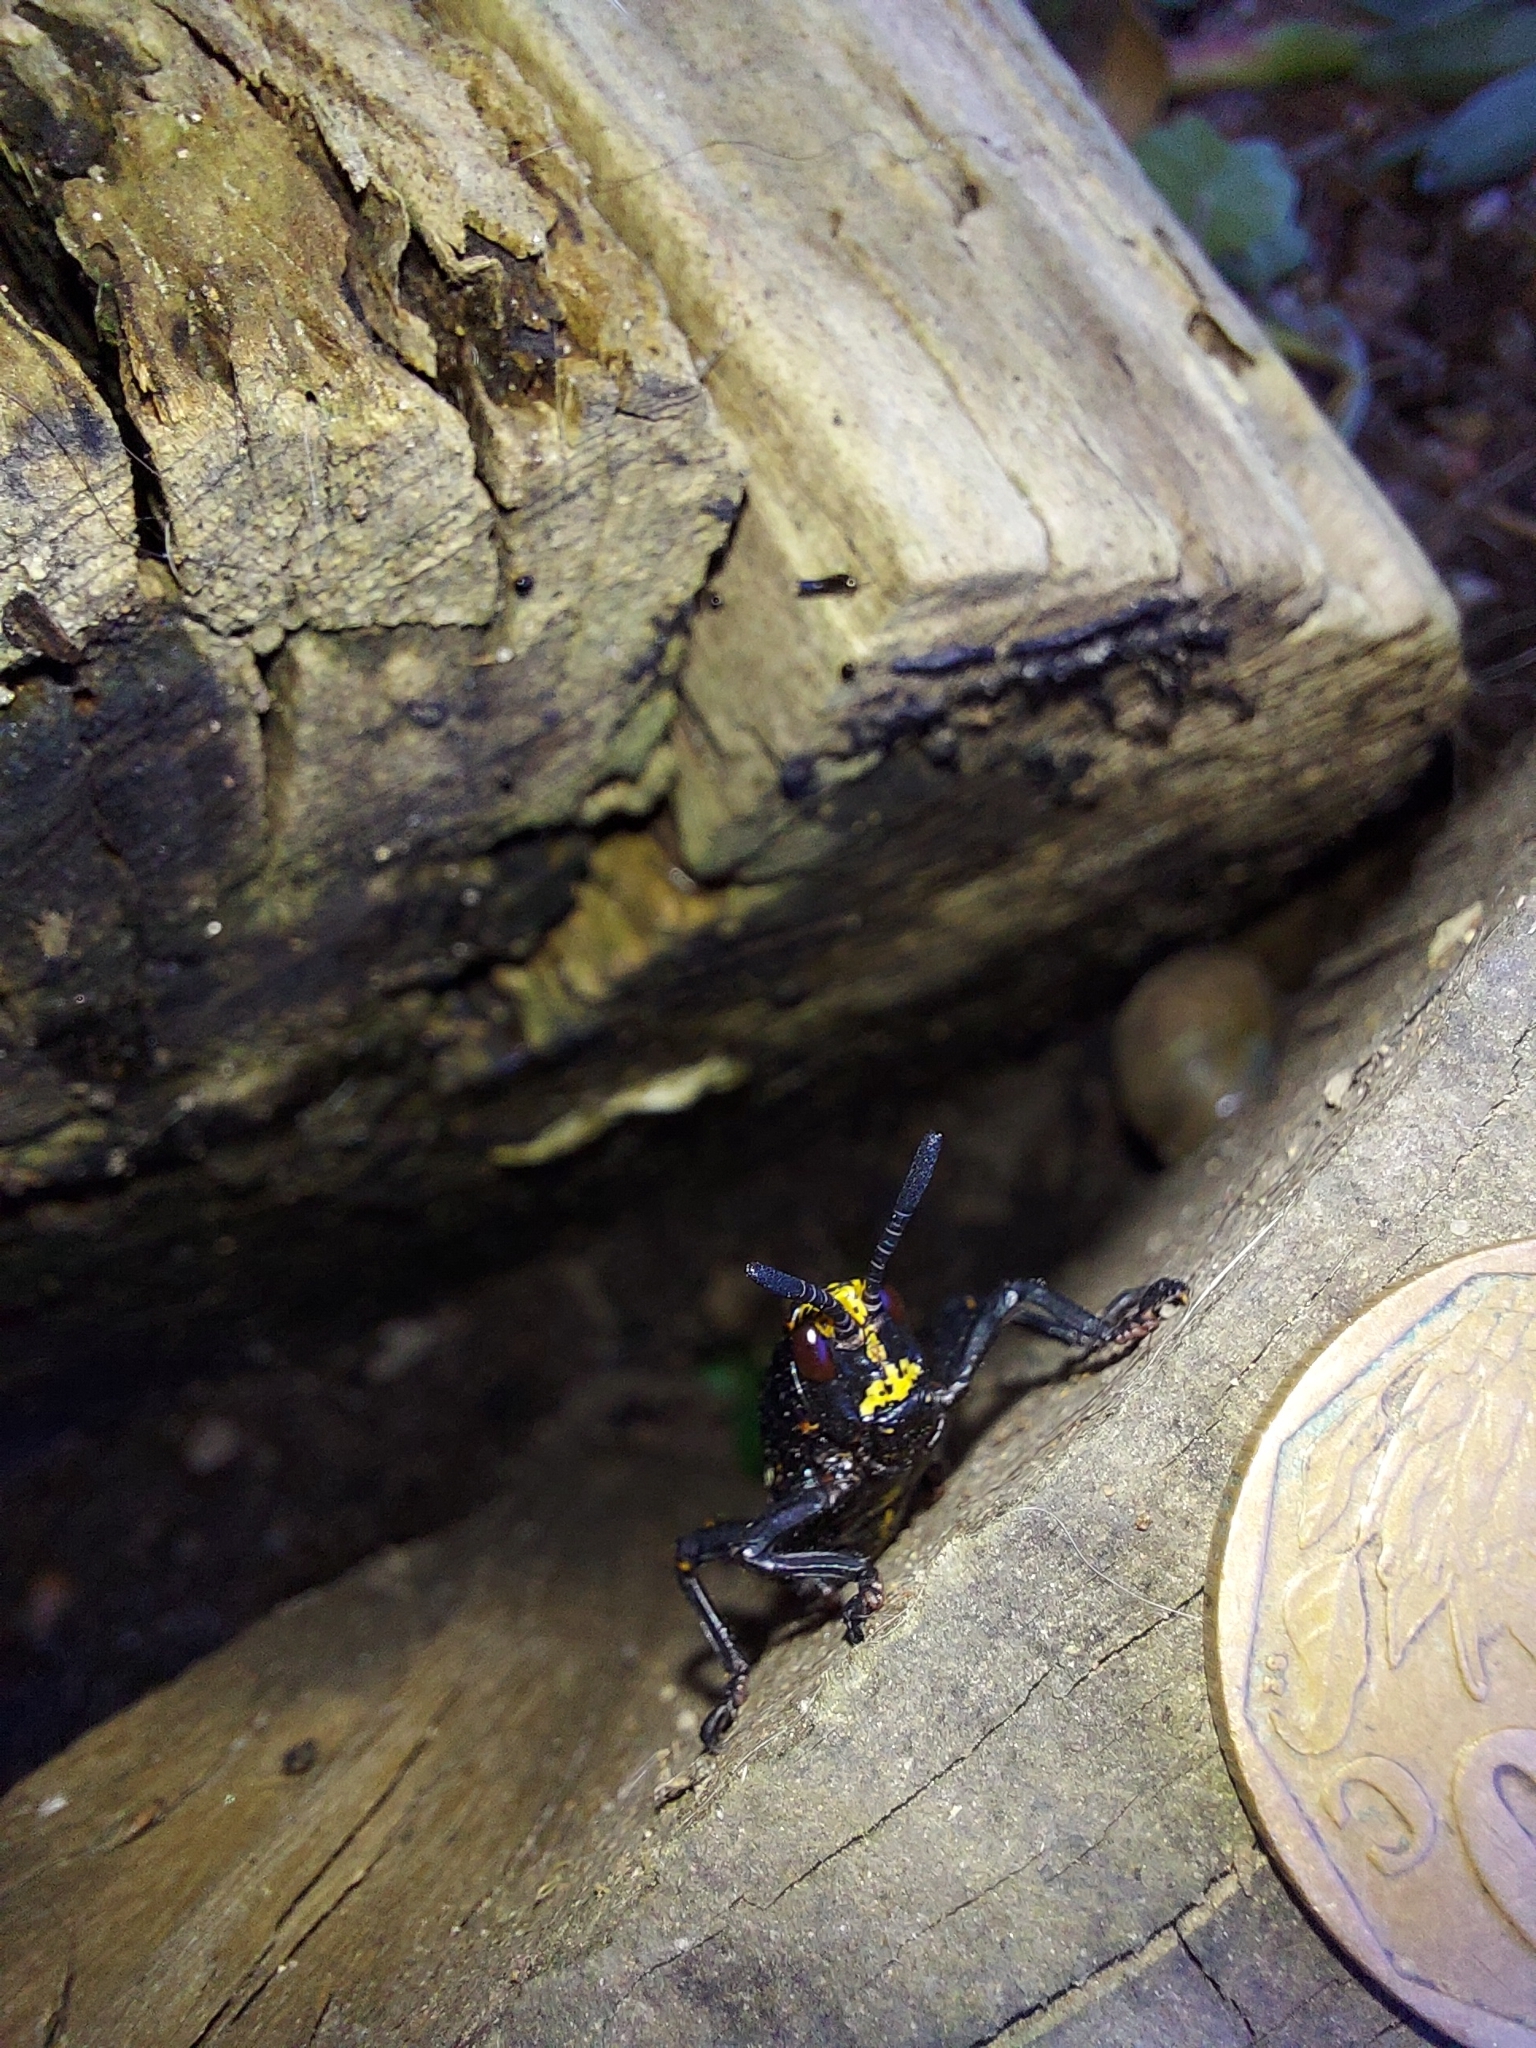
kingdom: Animalia
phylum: Arthropoda
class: Insecta
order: Orthoptera
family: Pyrgomorphidae
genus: Dictyophorus
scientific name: Dictyophorus spumans
